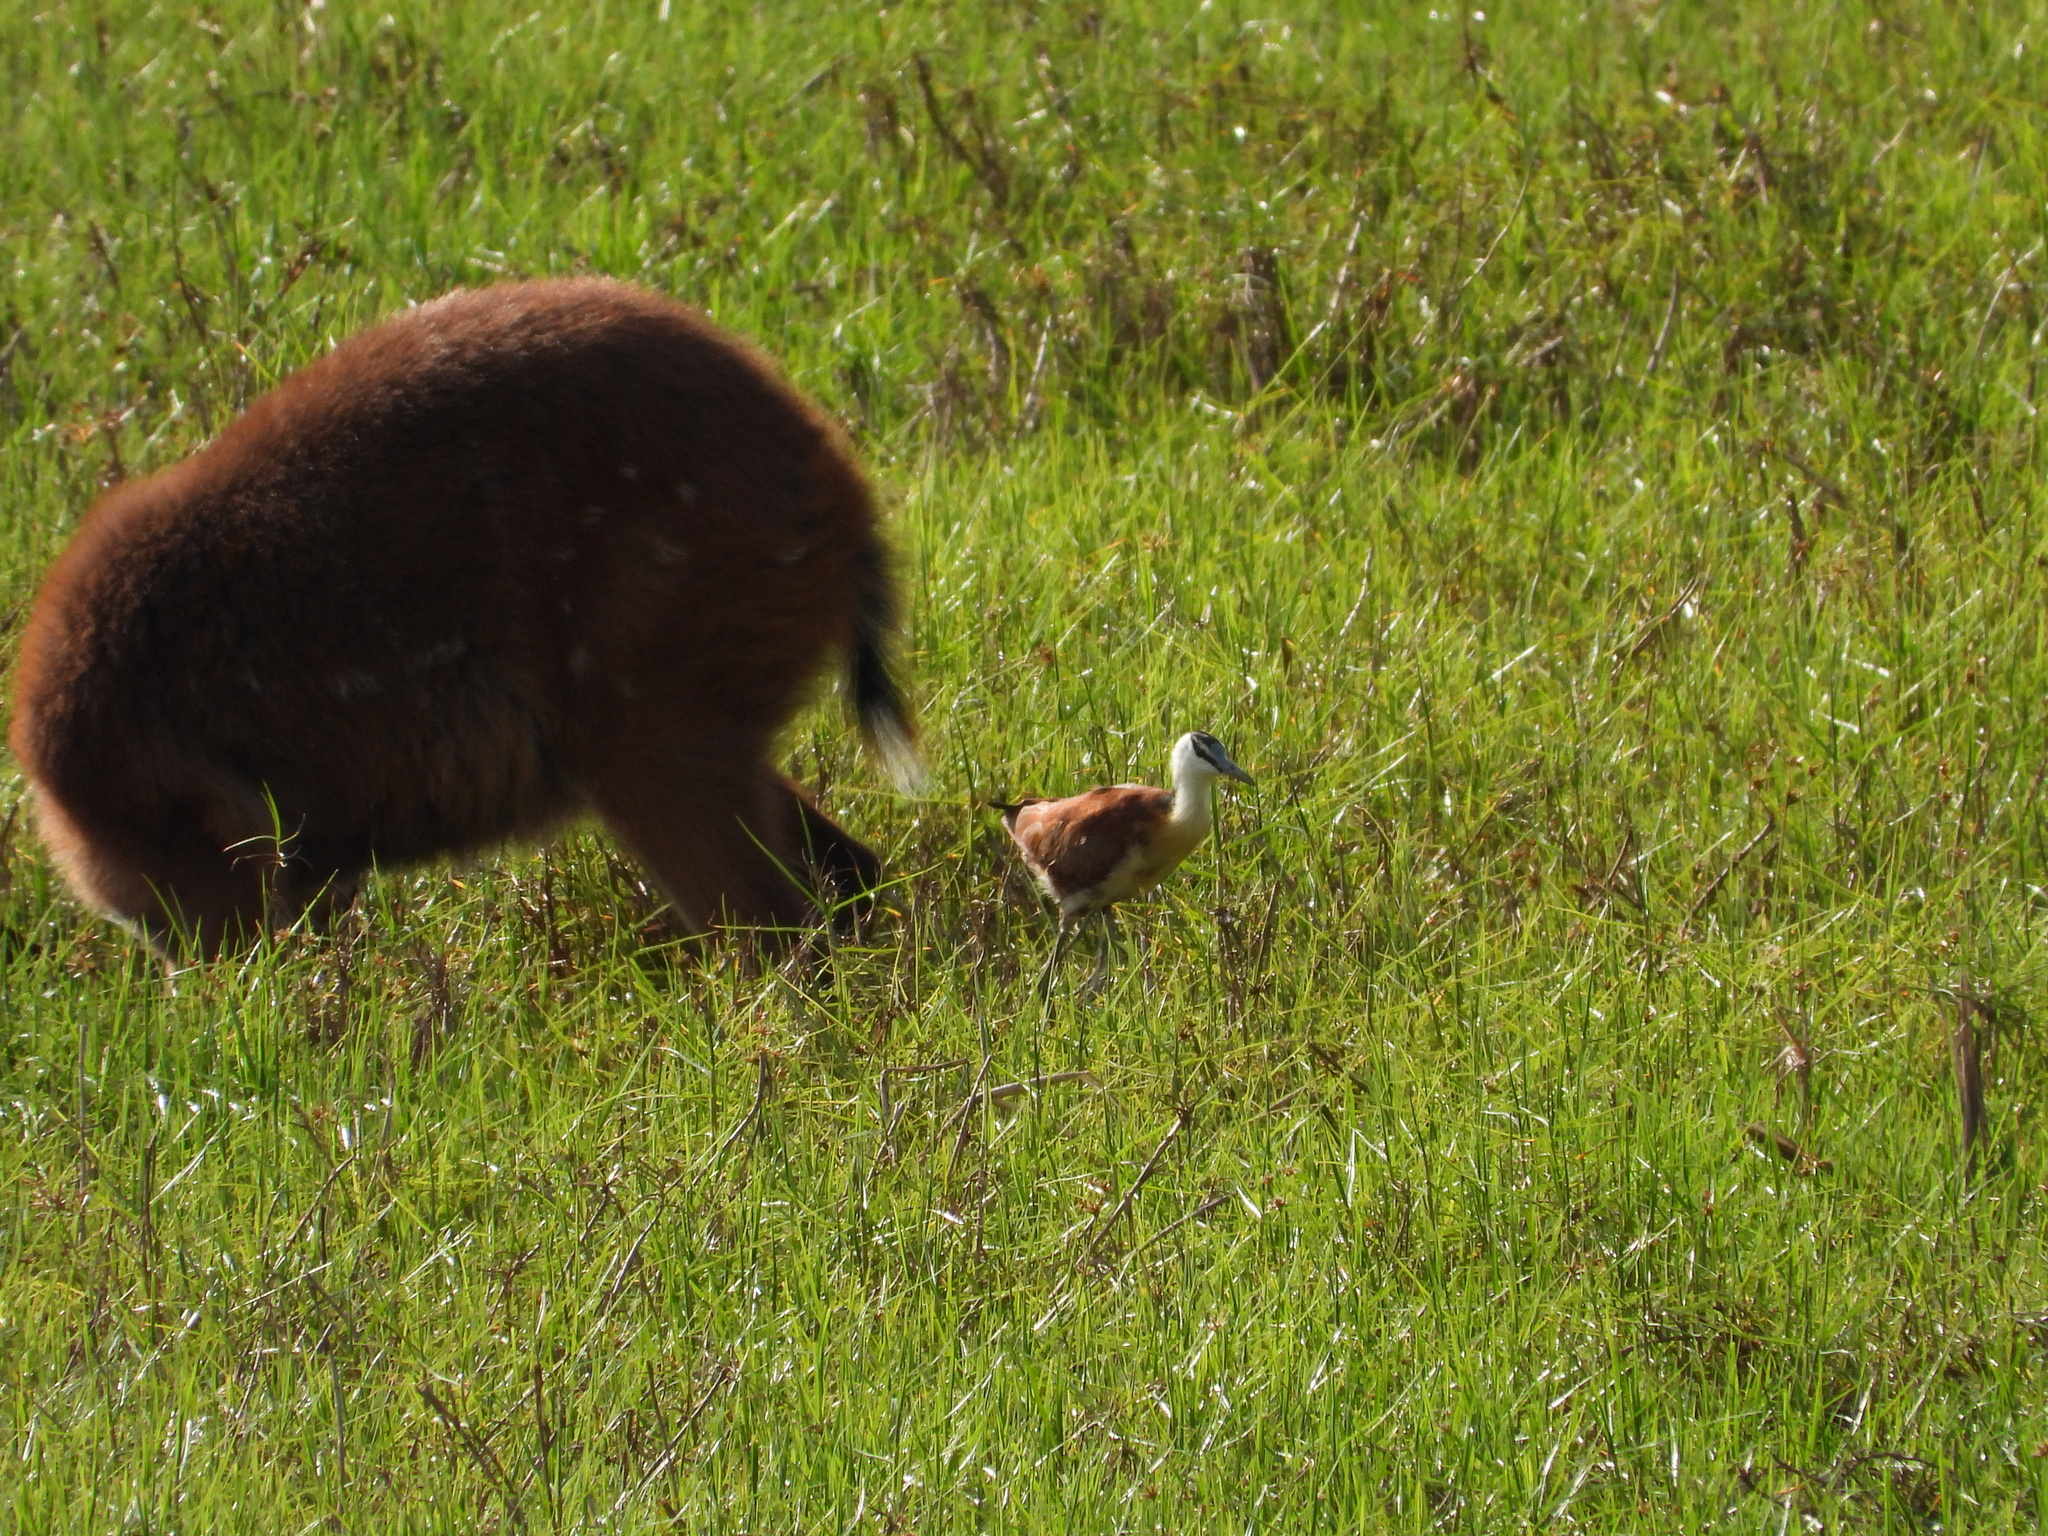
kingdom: Animalia
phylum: Chordata
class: Aves
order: Charadriiformes
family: Jacanidae
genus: Actophilornis
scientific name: Actophilornis africanus
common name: African jacana
